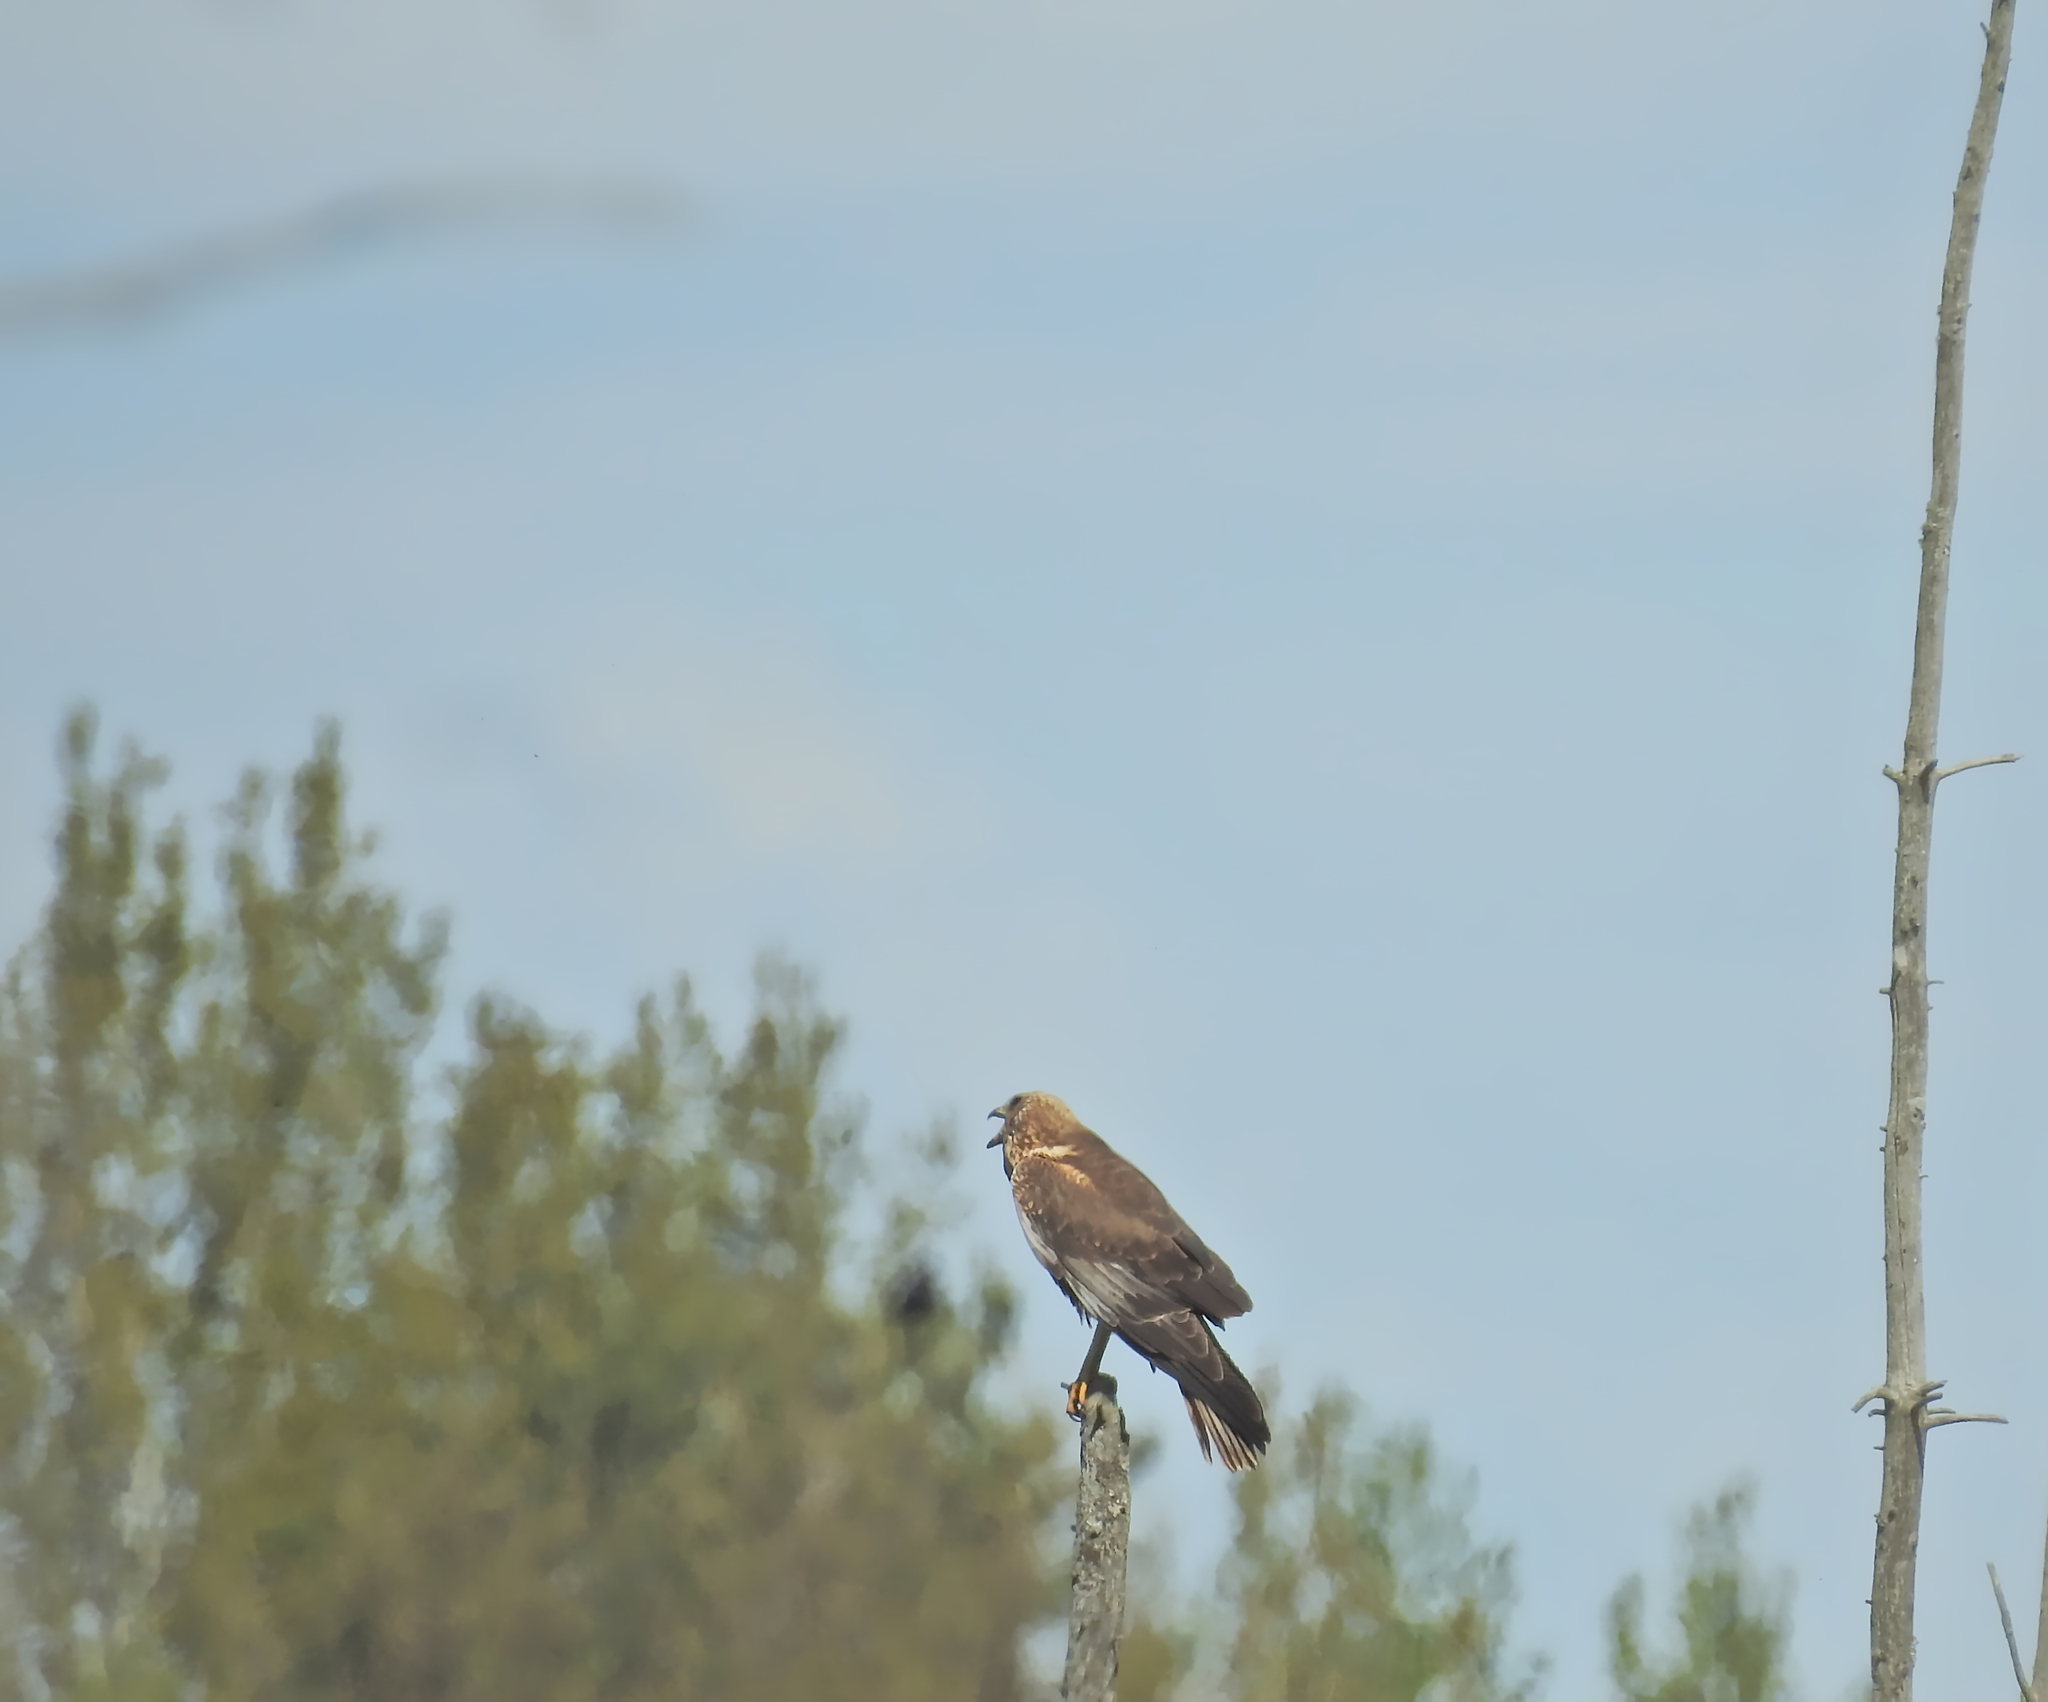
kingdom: Animalia
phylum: Chordata
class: Aves
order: Accipitriformes
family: Accipitridae
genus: Circus
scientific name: Circus aeruginosus
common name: Western marsh harrier
